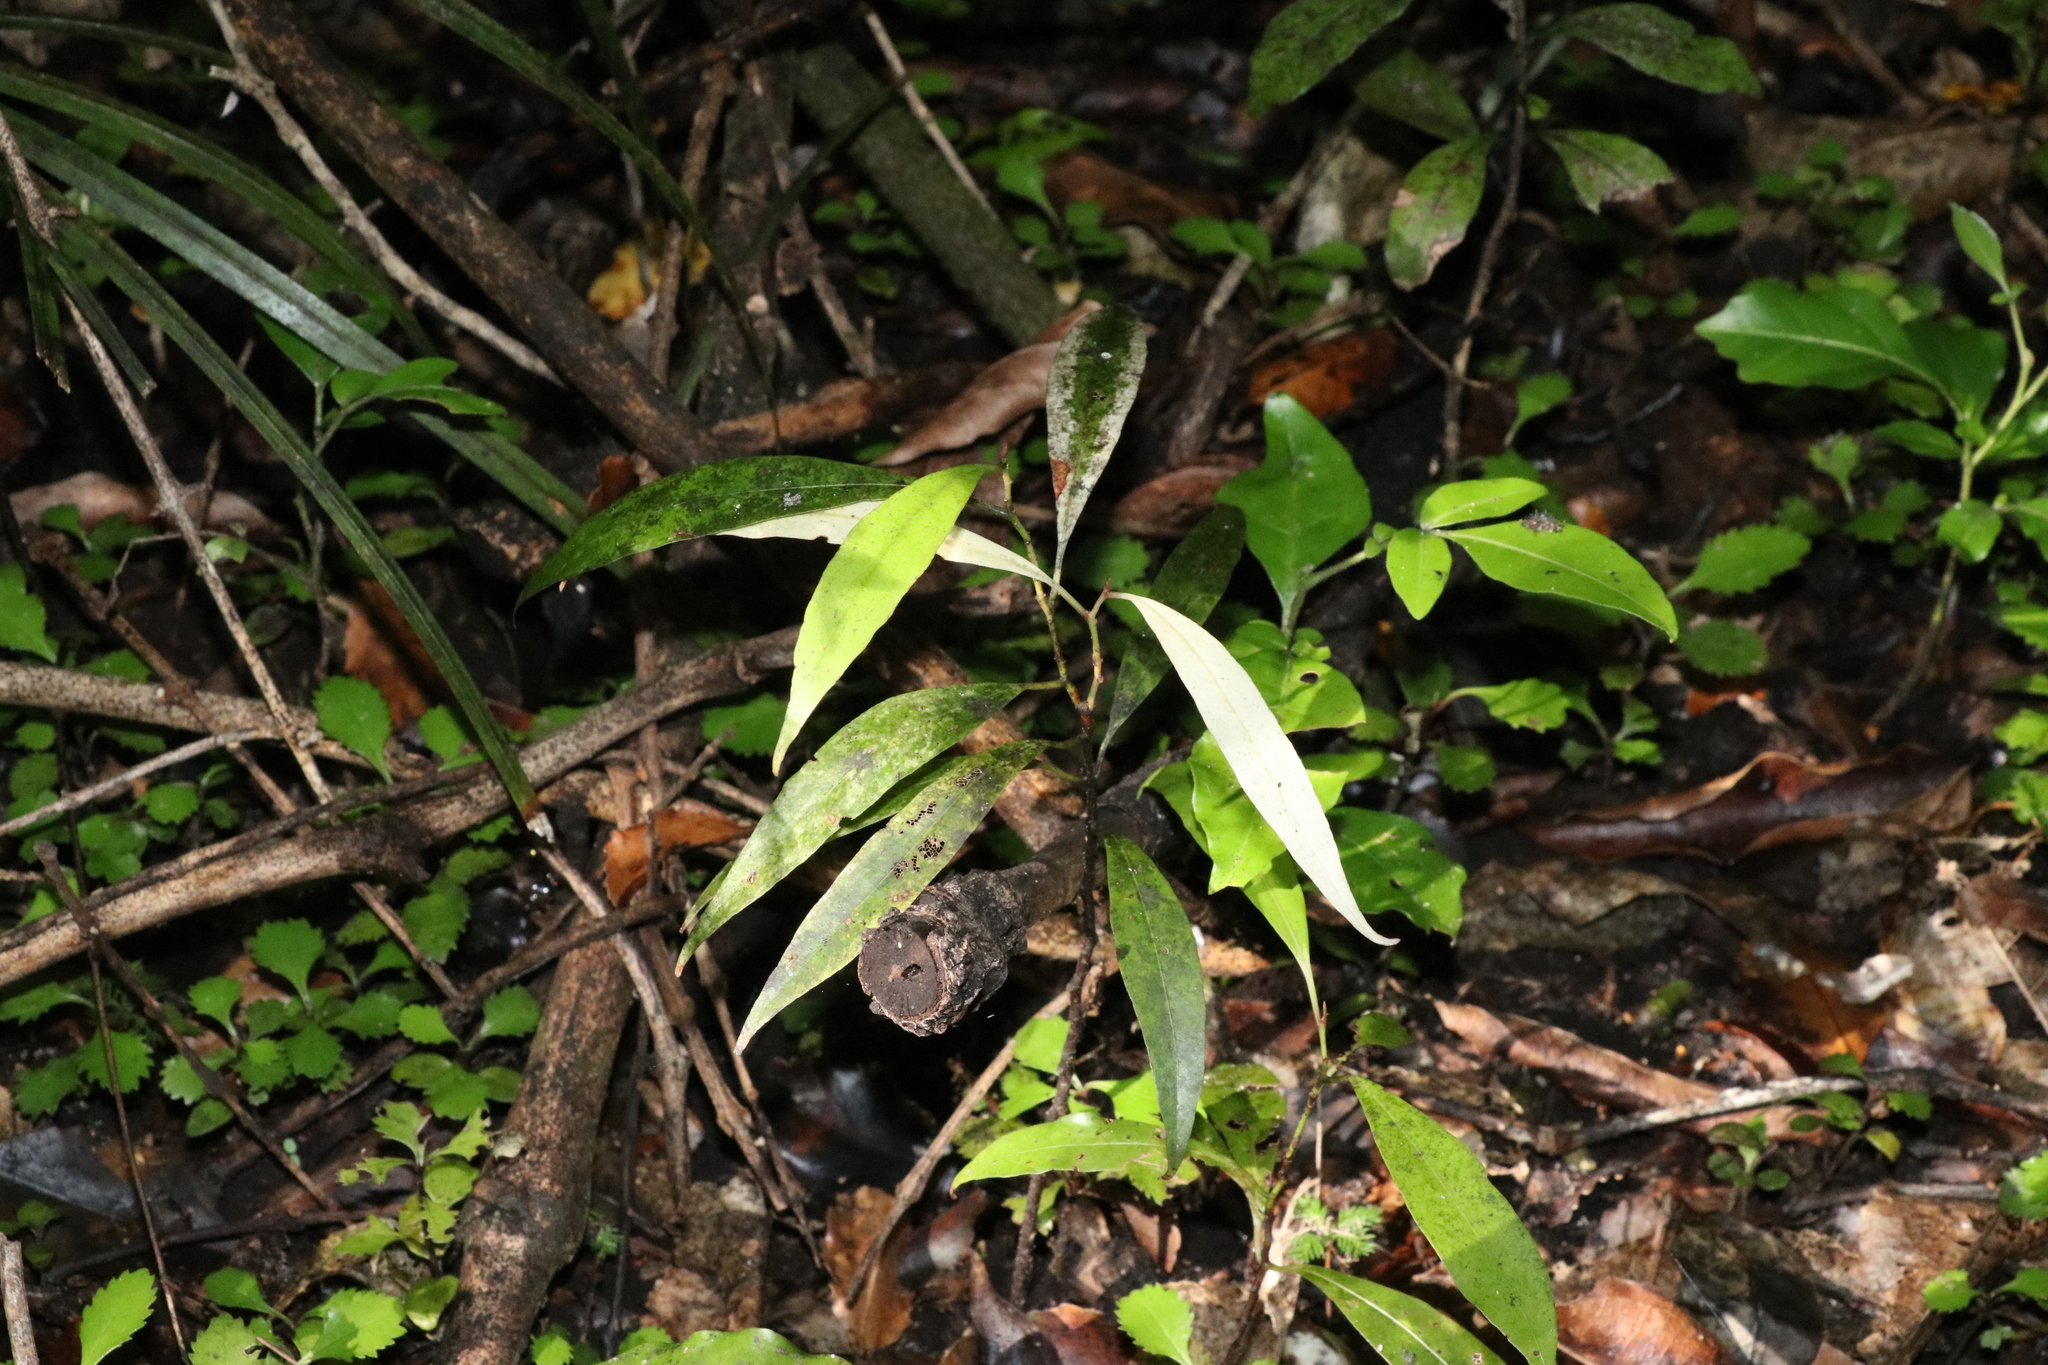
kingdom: Plantae
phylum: Tracheophyta
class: Magnoliopsida
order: Laurales
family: Lauraceae
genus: Beilschmiedia
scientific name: Beilschmiedia tawa
